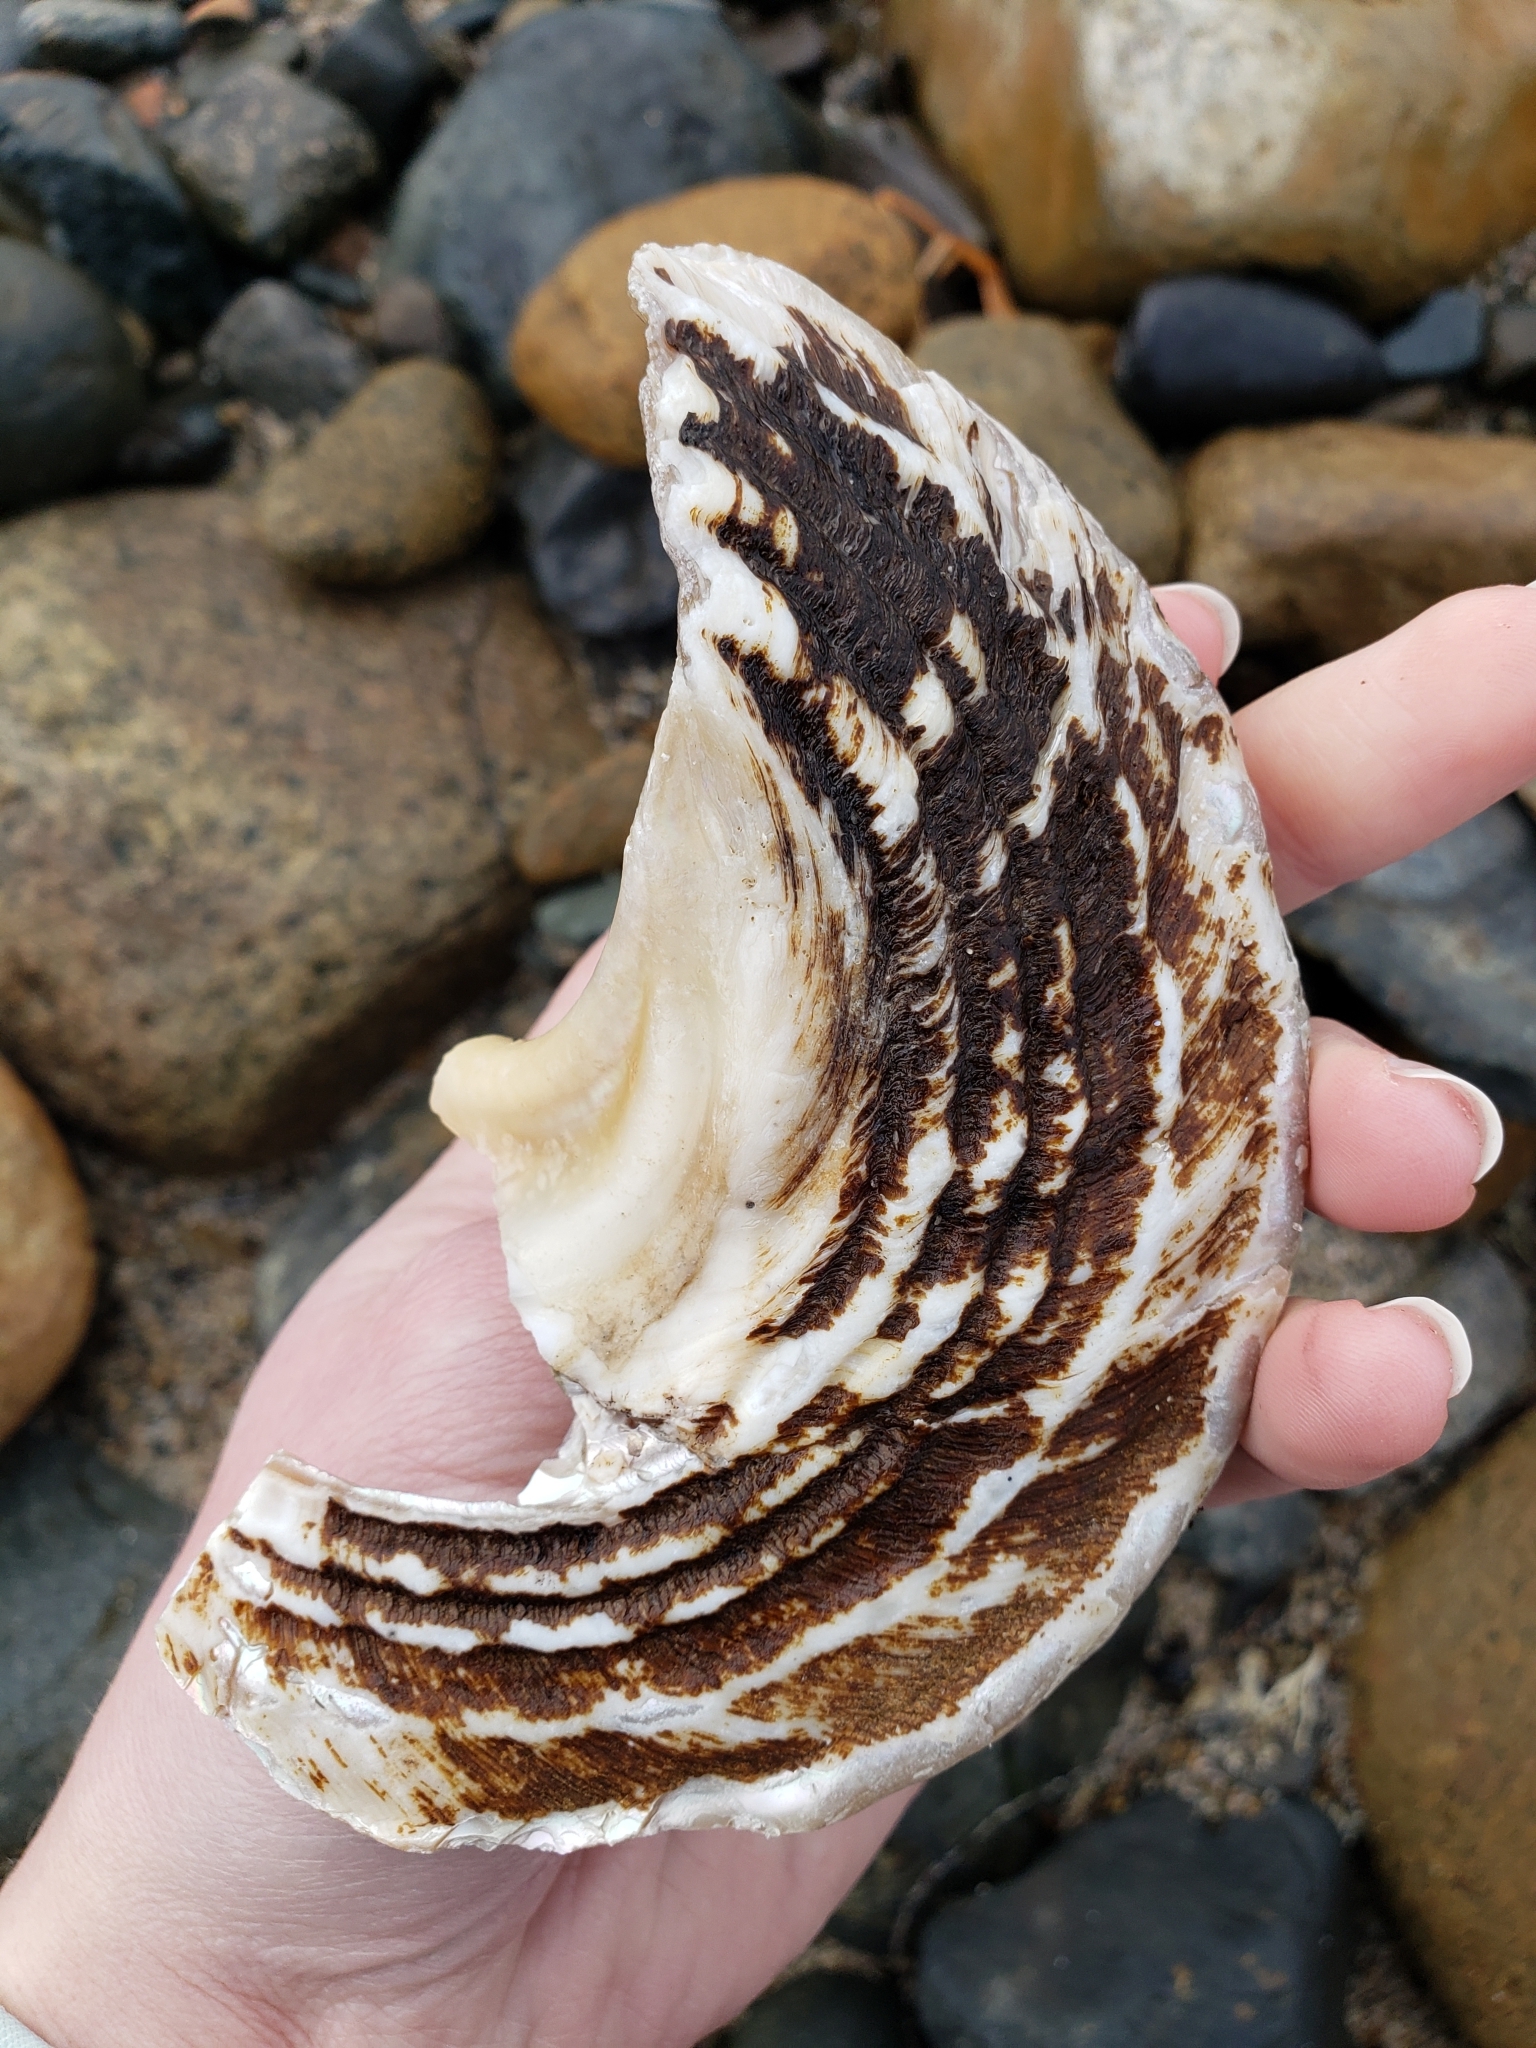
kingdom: Animalia
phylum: Mollusca
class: Gastropoda
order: Trochida
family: Turbinidae
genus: Megastraea
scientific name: Megastraea undosa
